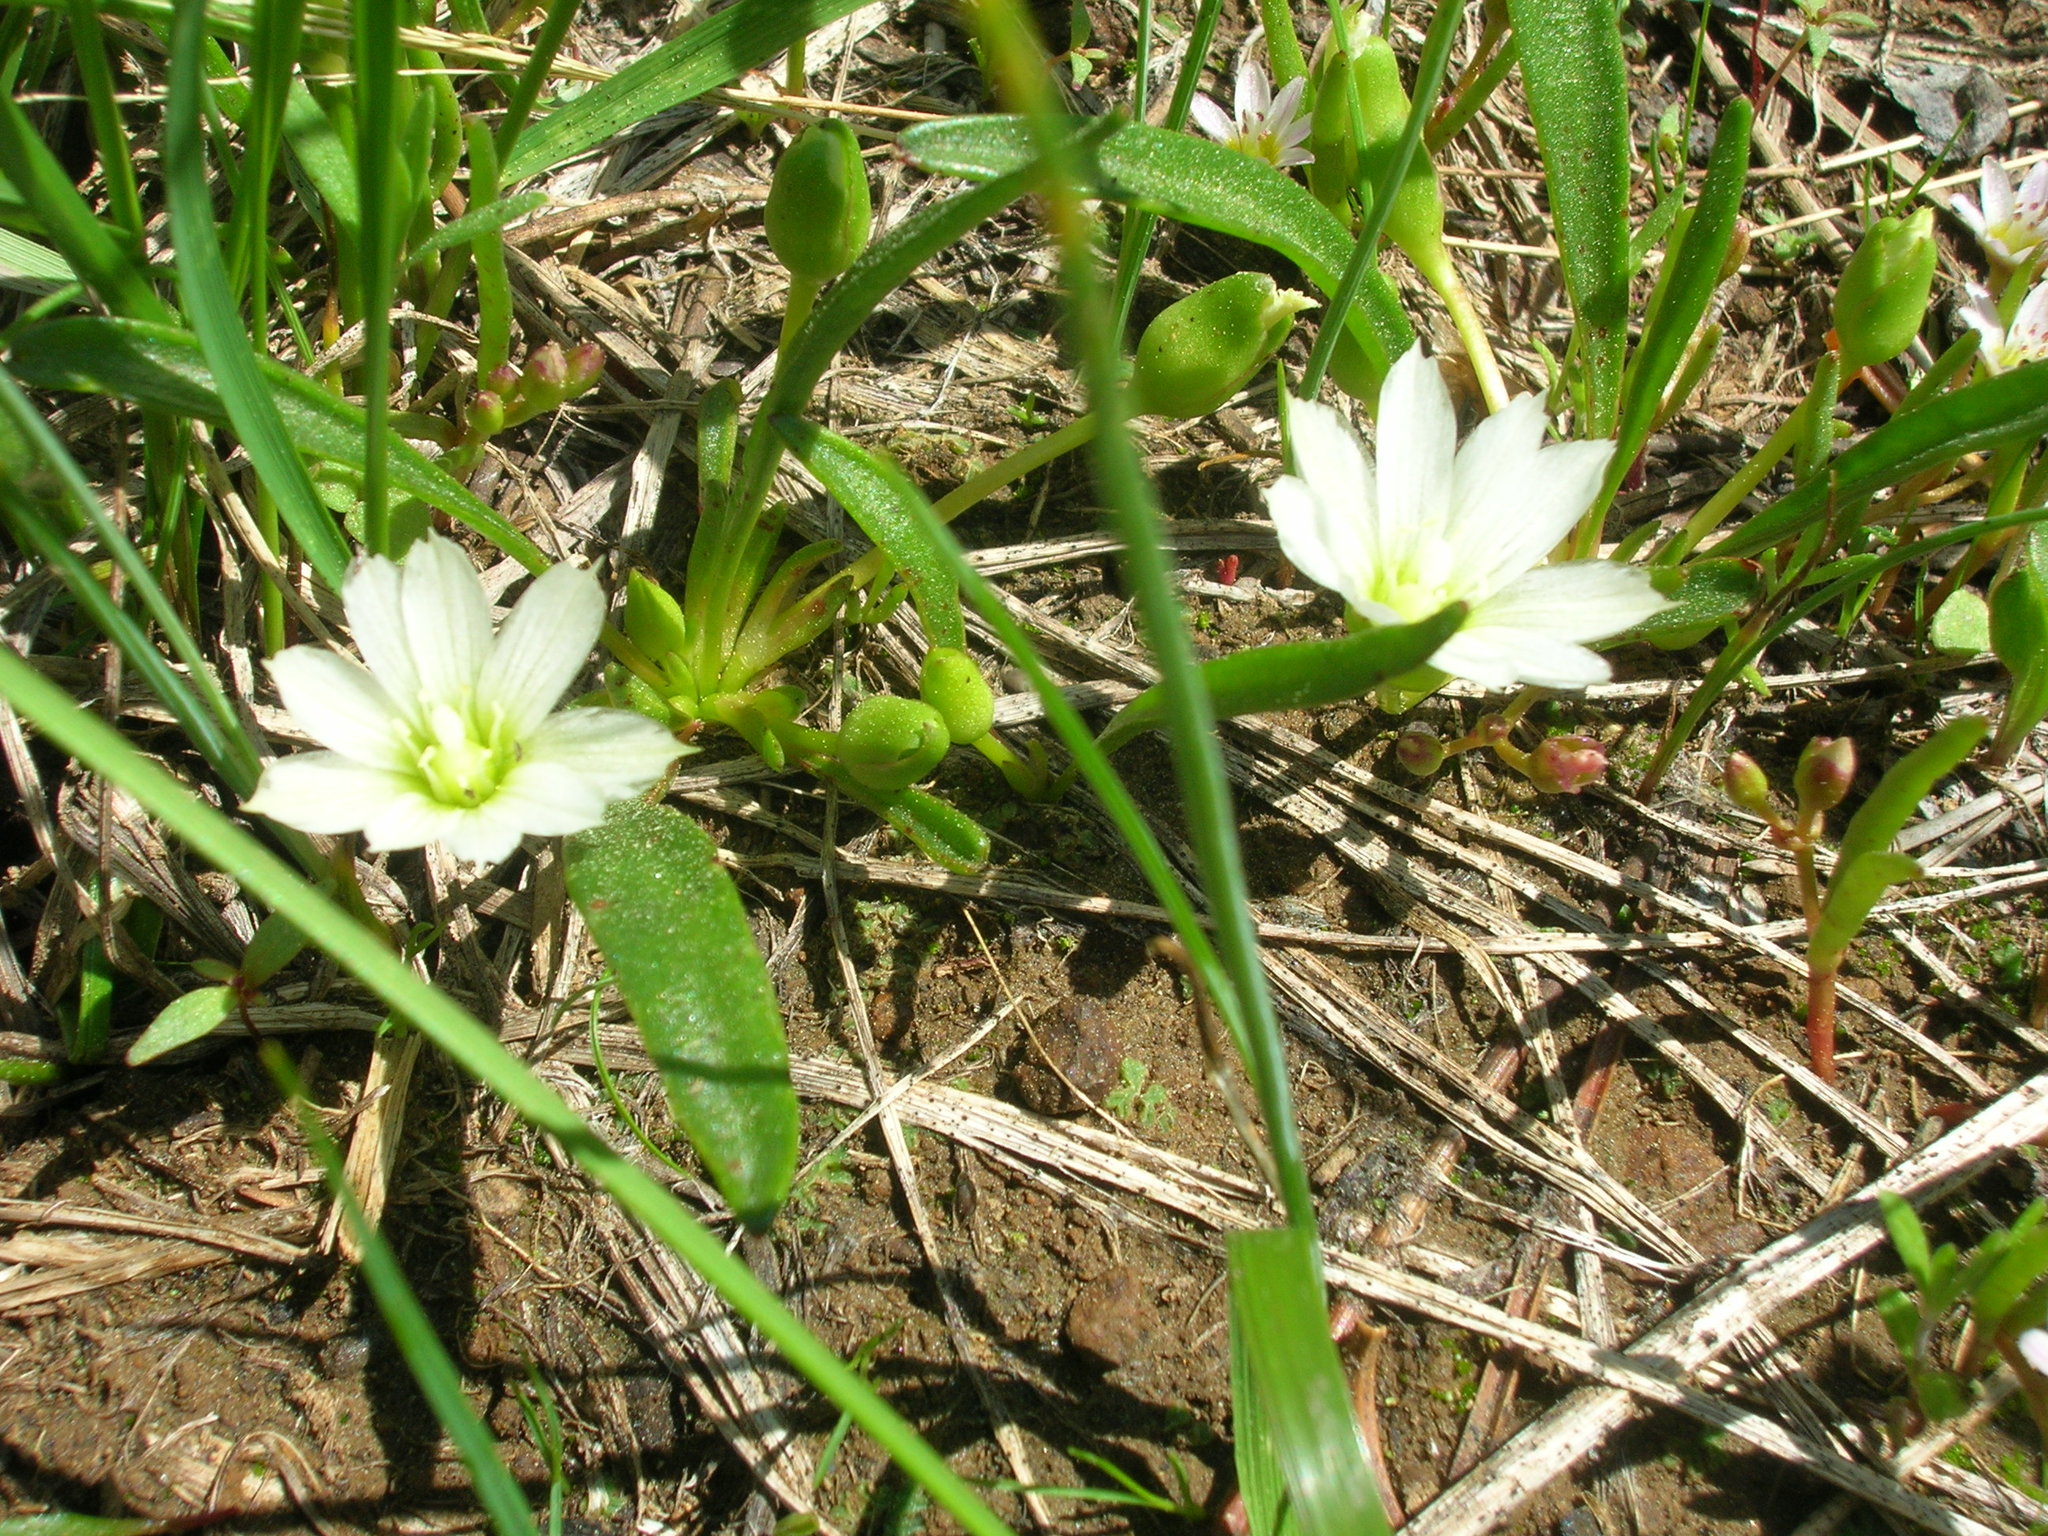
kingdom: Plantae
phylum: Tracheophyta
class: Magnoliopsida
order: Caryophyllales
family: Montiaceae
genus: Lewisia
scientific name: Lewisia nevadensis
